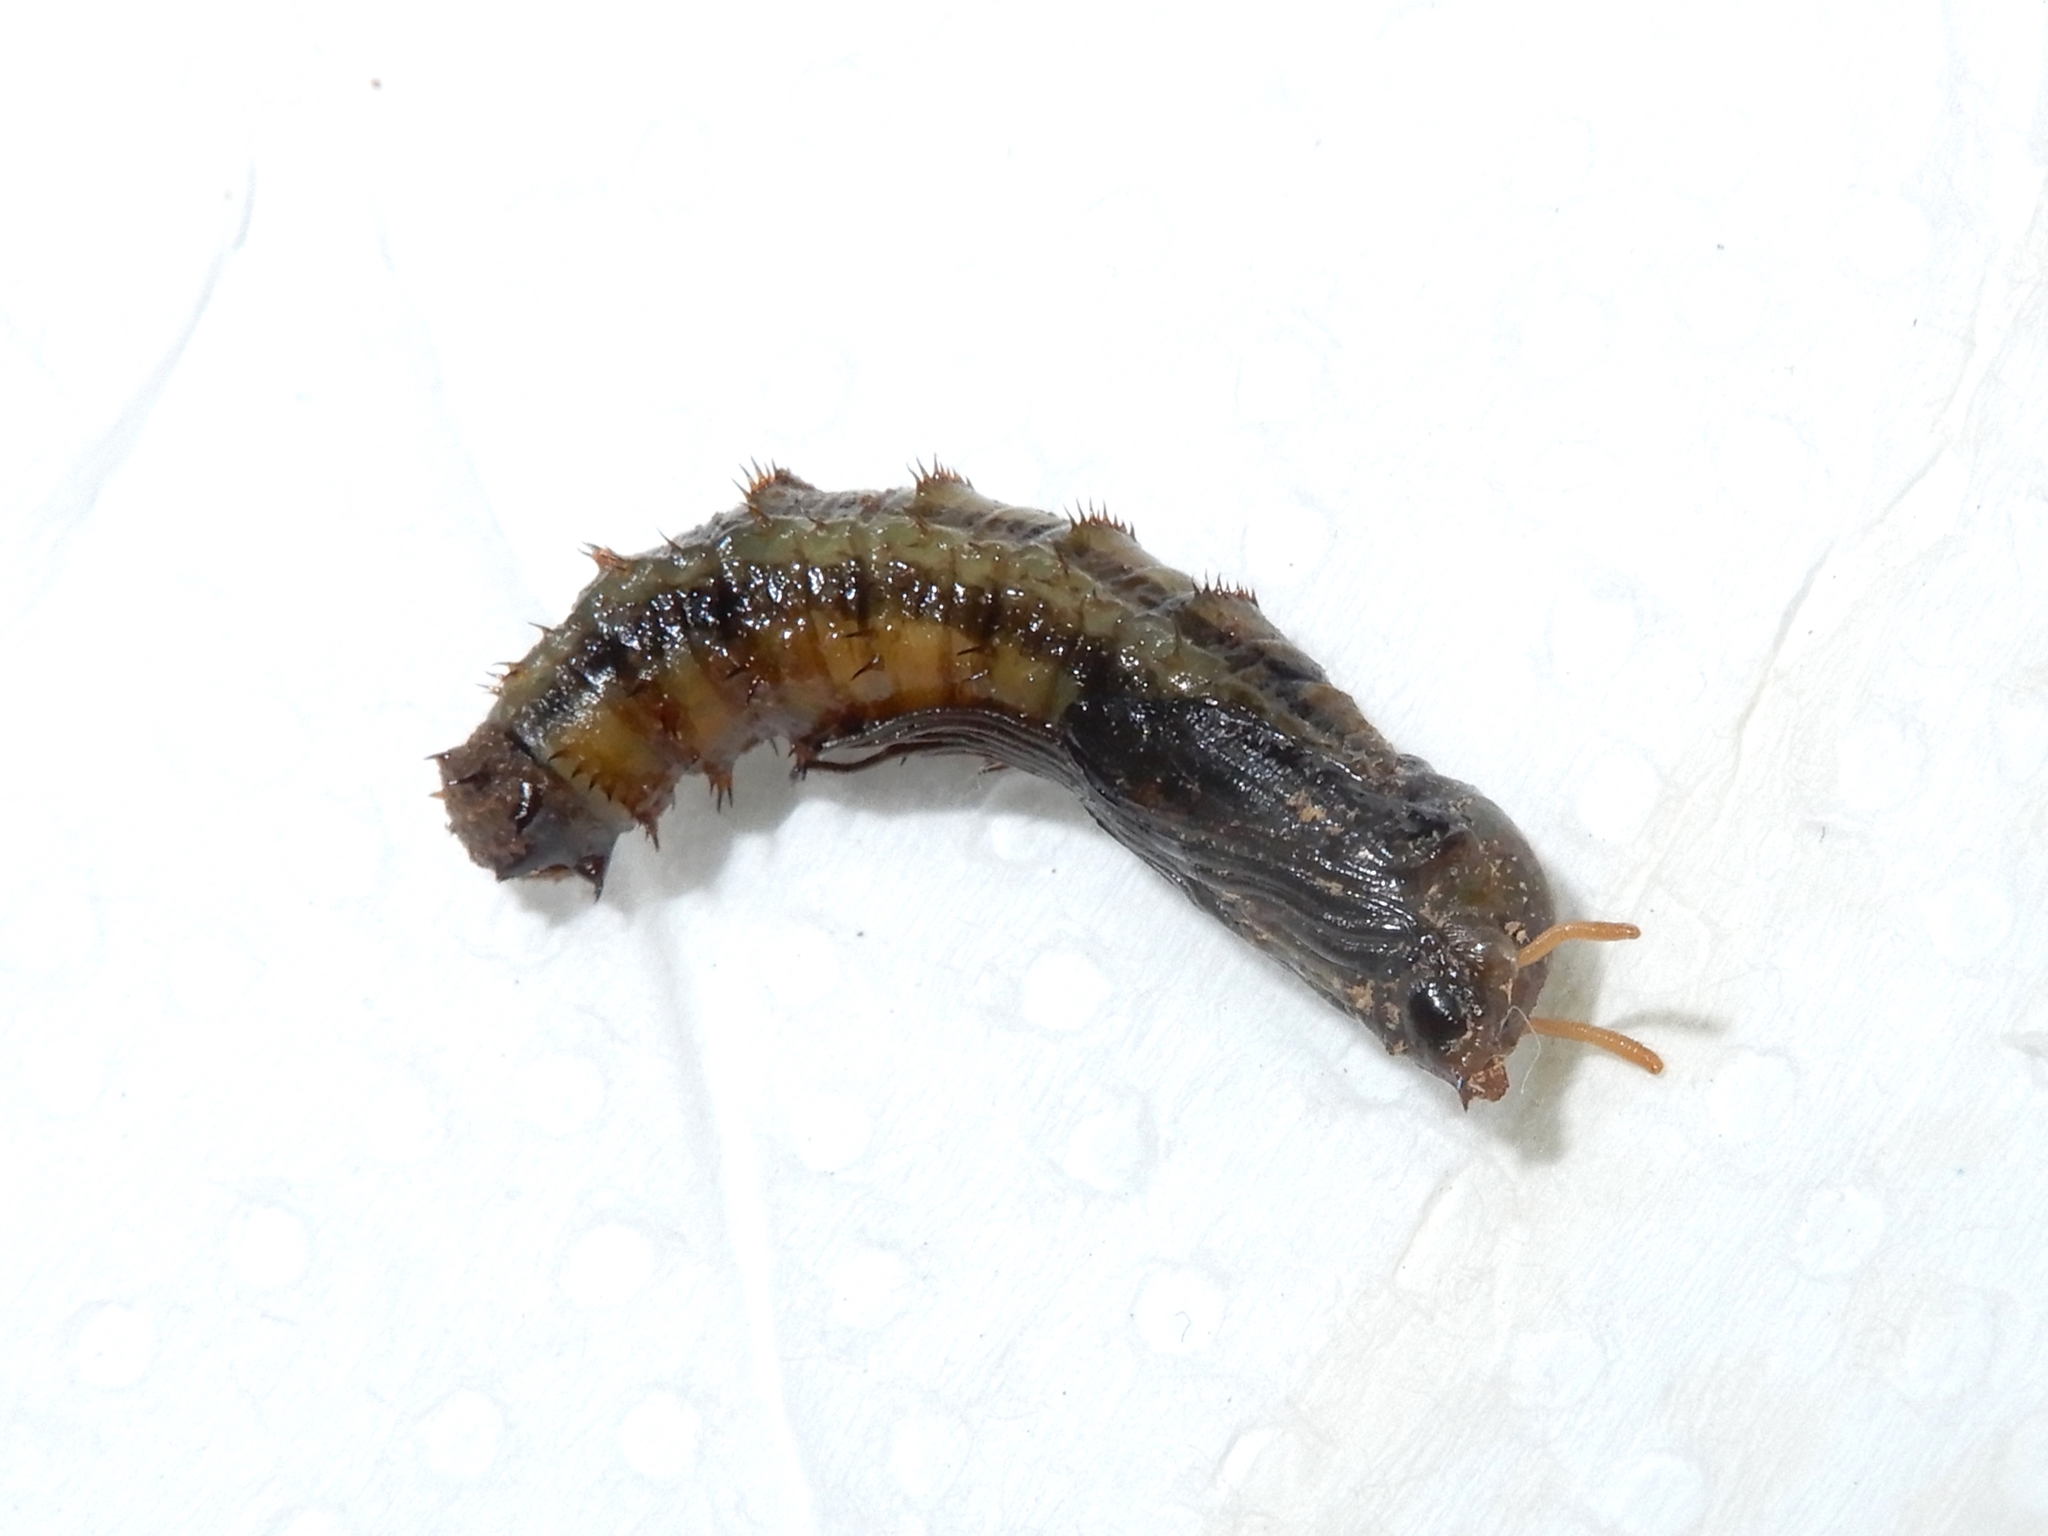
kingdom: Animalia
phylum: Arthropoda
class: Insecta
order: Diptera
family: Tipulidae
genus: Leptotarsus
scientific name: Leptotarsus albistigma
